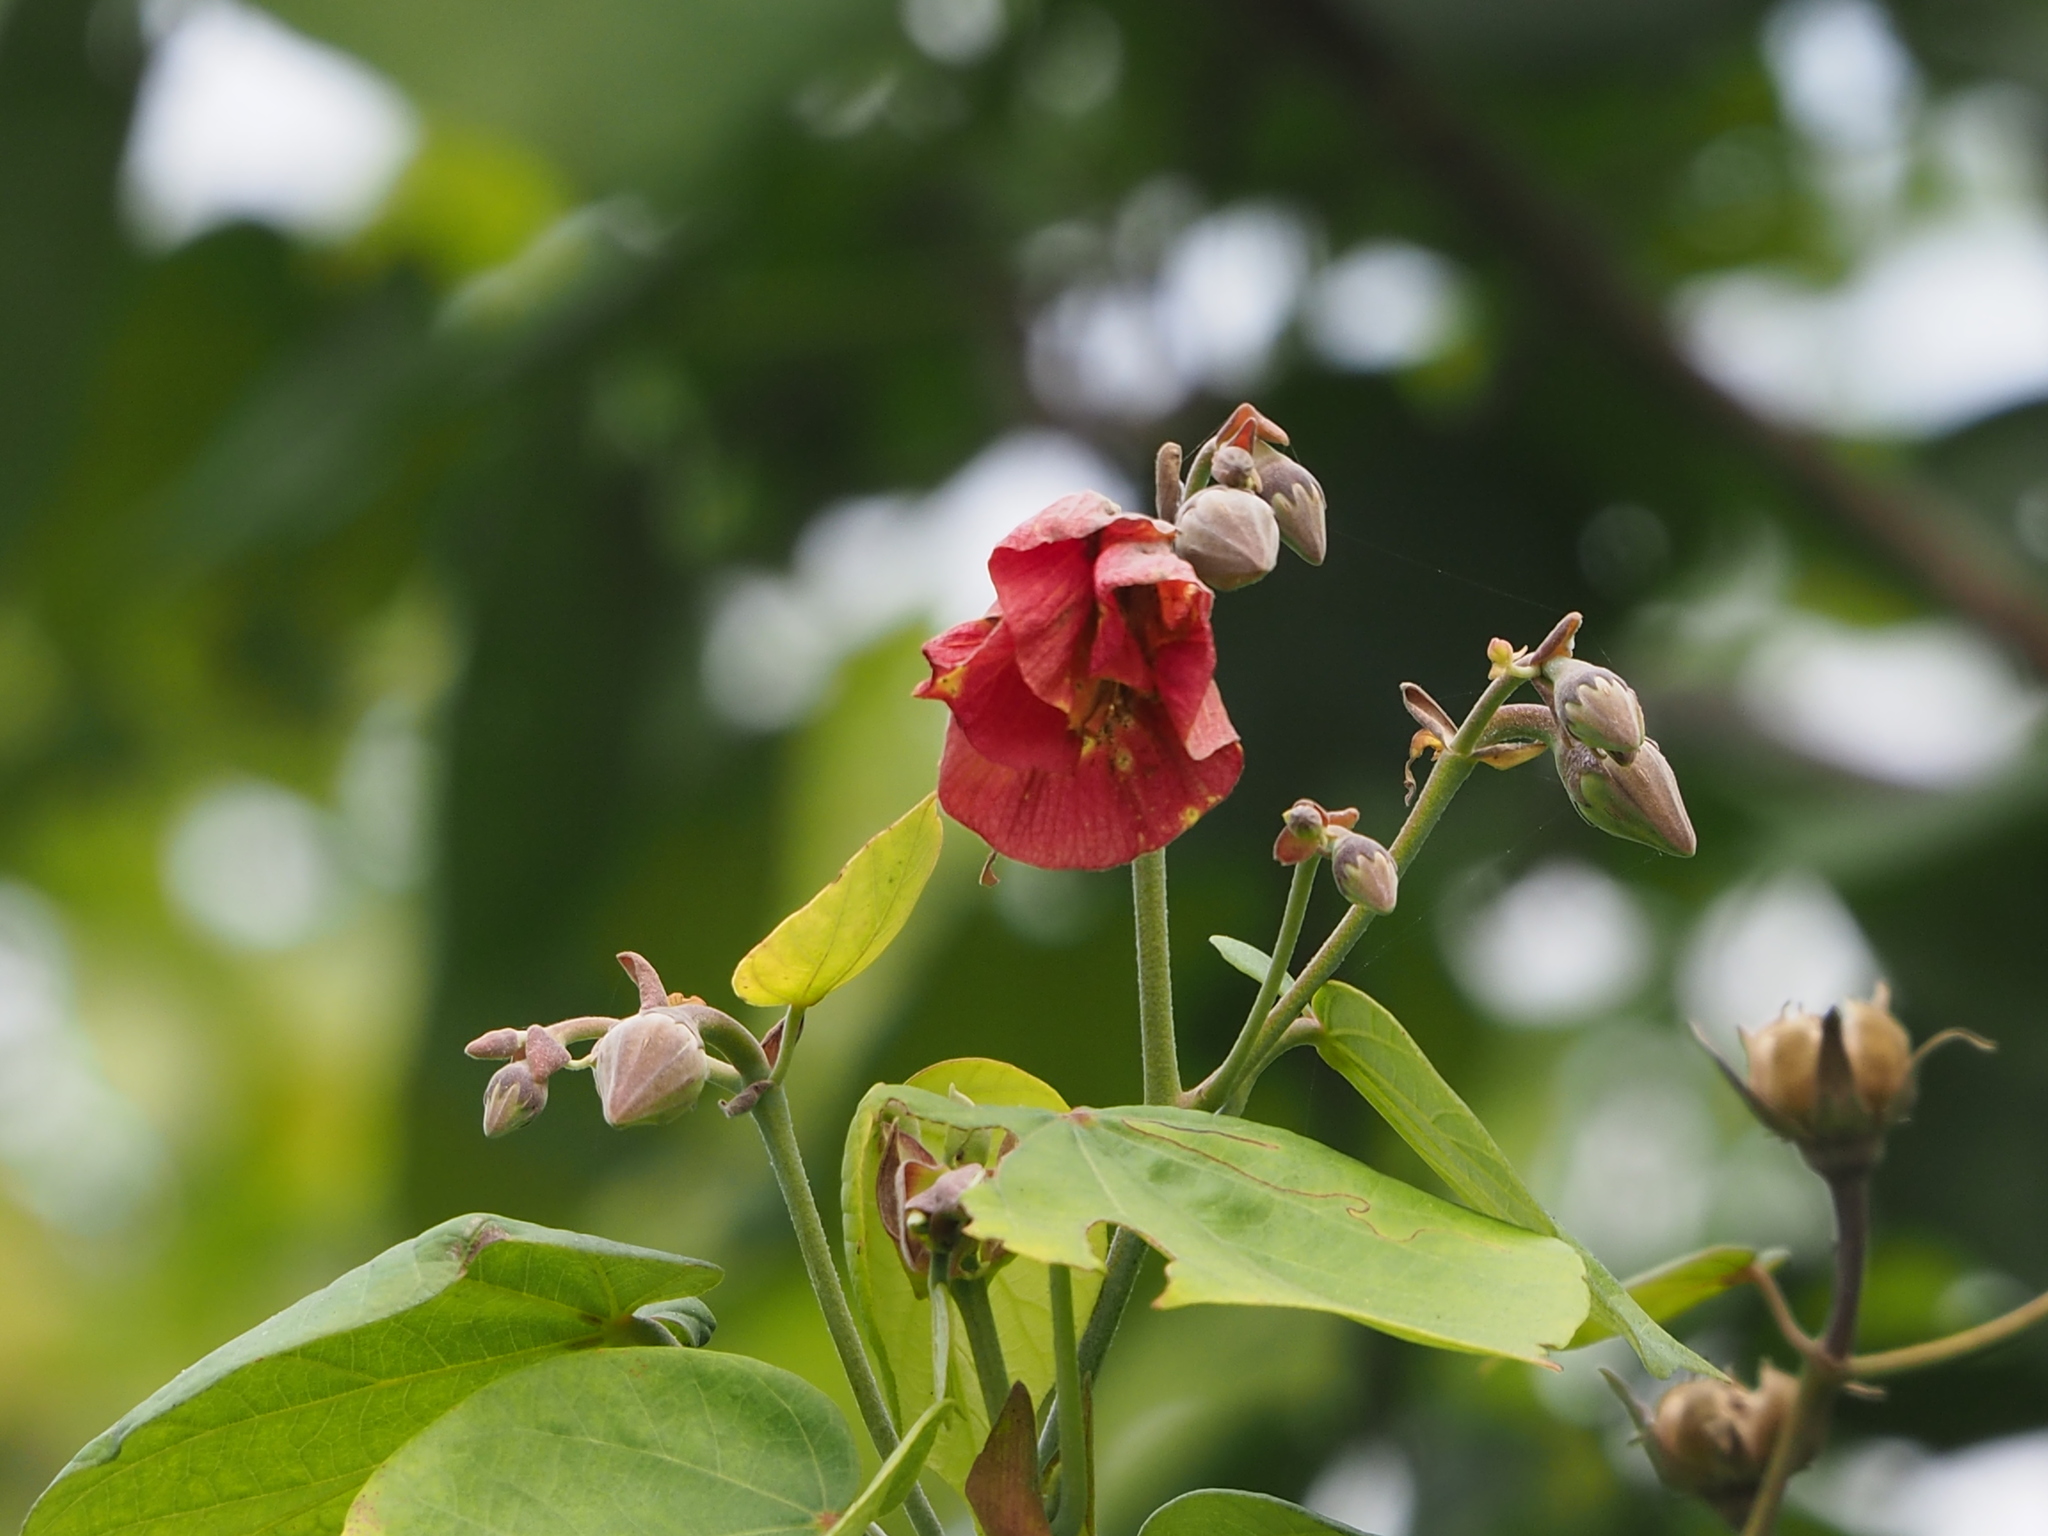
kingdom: Plantae
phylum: Tracheophyta
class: Magnoliopsida
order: Malvales
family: Malvaceae
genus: Talipariti
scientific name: Talipariti tiliaceum
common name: Sea hibiscus
